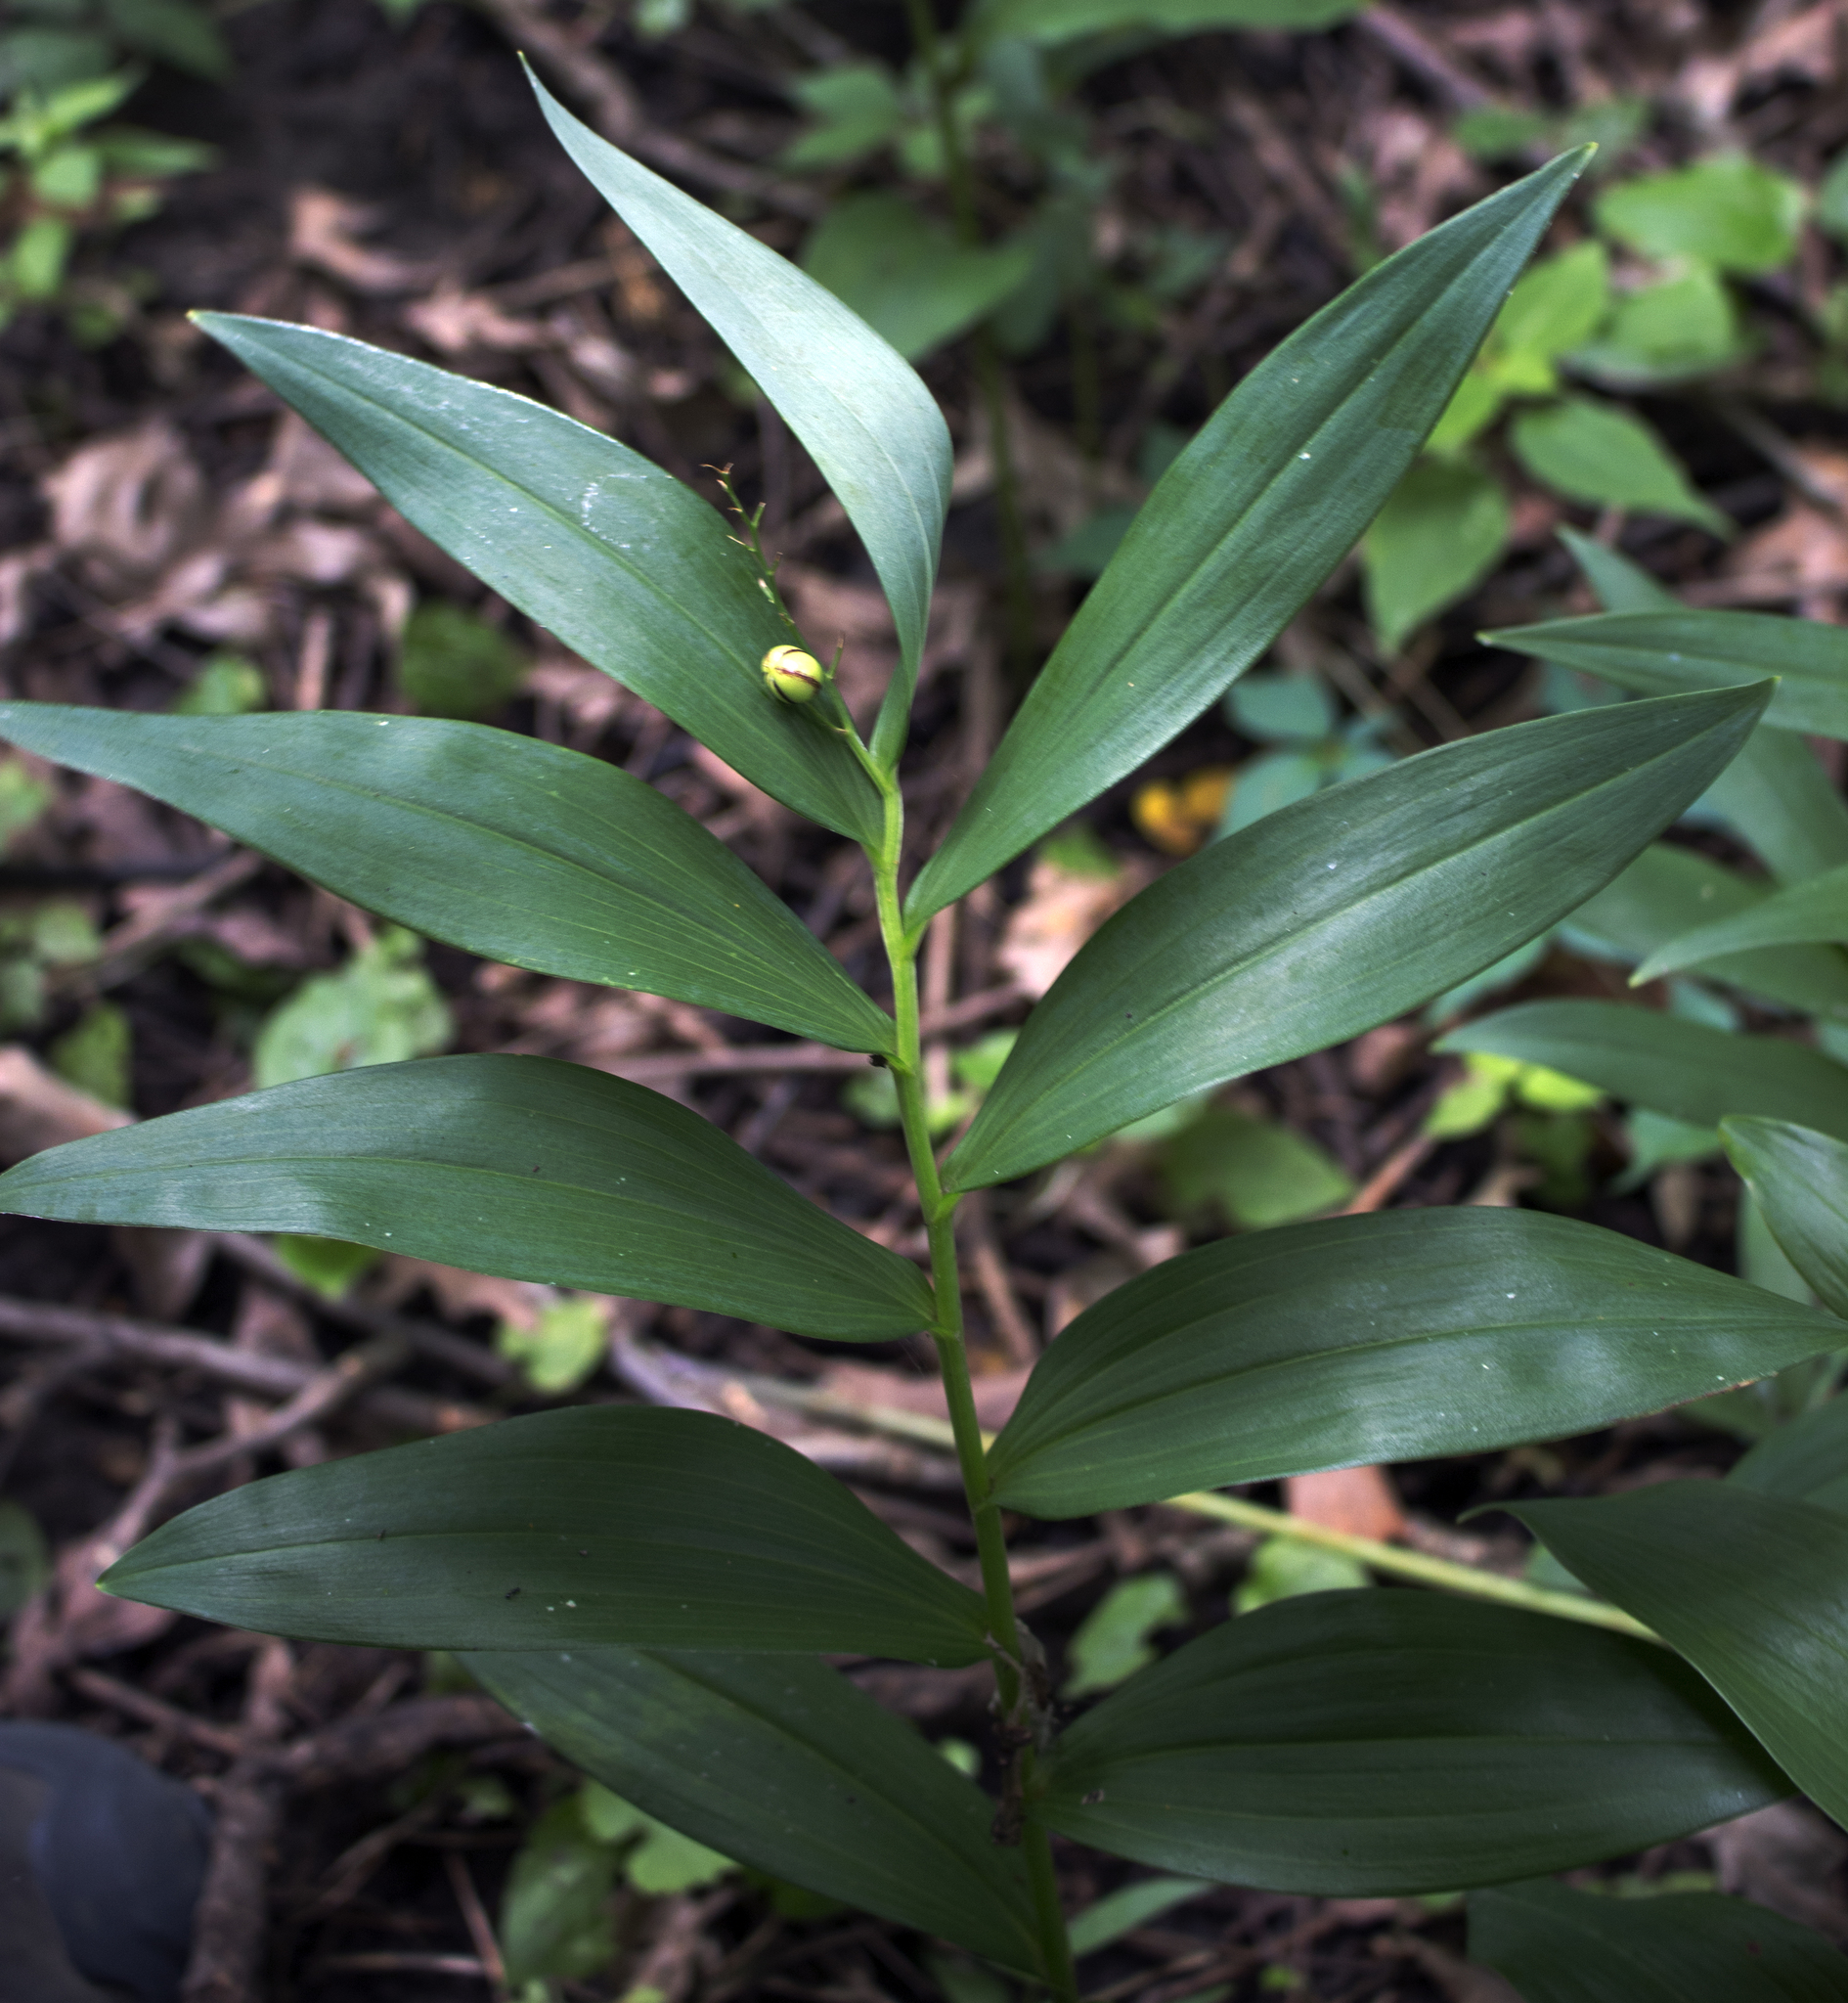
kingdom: Plantae
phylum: Tracheophyta
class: Liliopsida
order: Asparagales
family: Asparagaceae
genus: Maianthemum
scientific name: Maianthemum stellatum
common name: Little false solomon's seal
